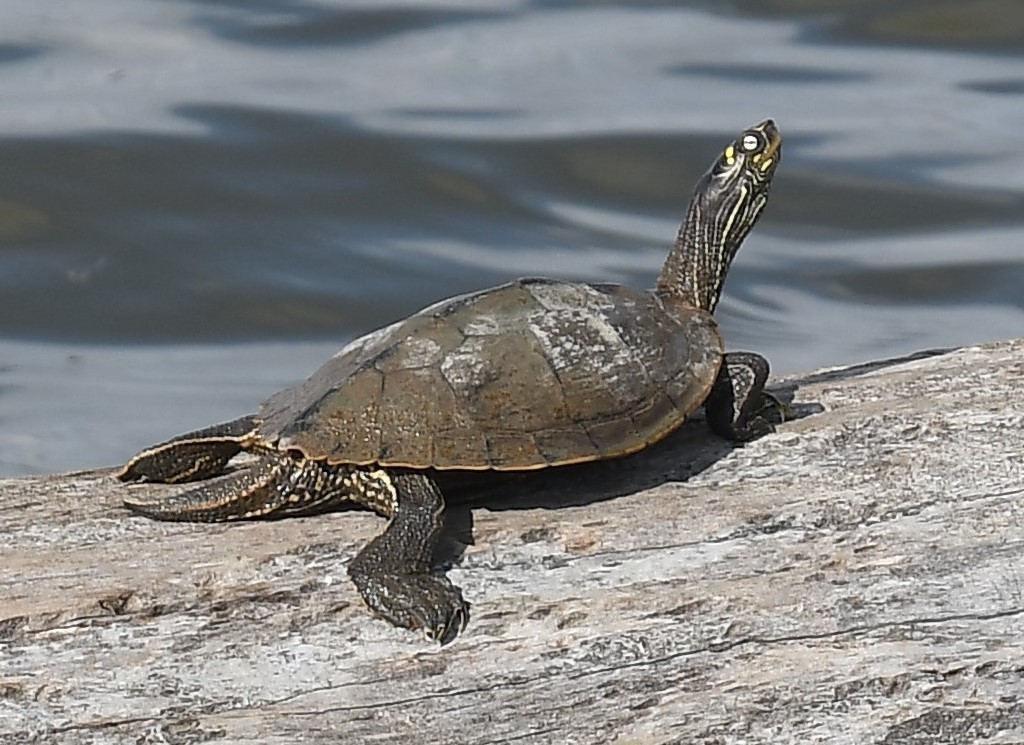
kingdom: Animalia
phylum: Chordata
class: Testudines
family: Emydidae
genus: Graptemys
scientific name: Graptemys ouachitensis
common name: Ouachita map turtle
